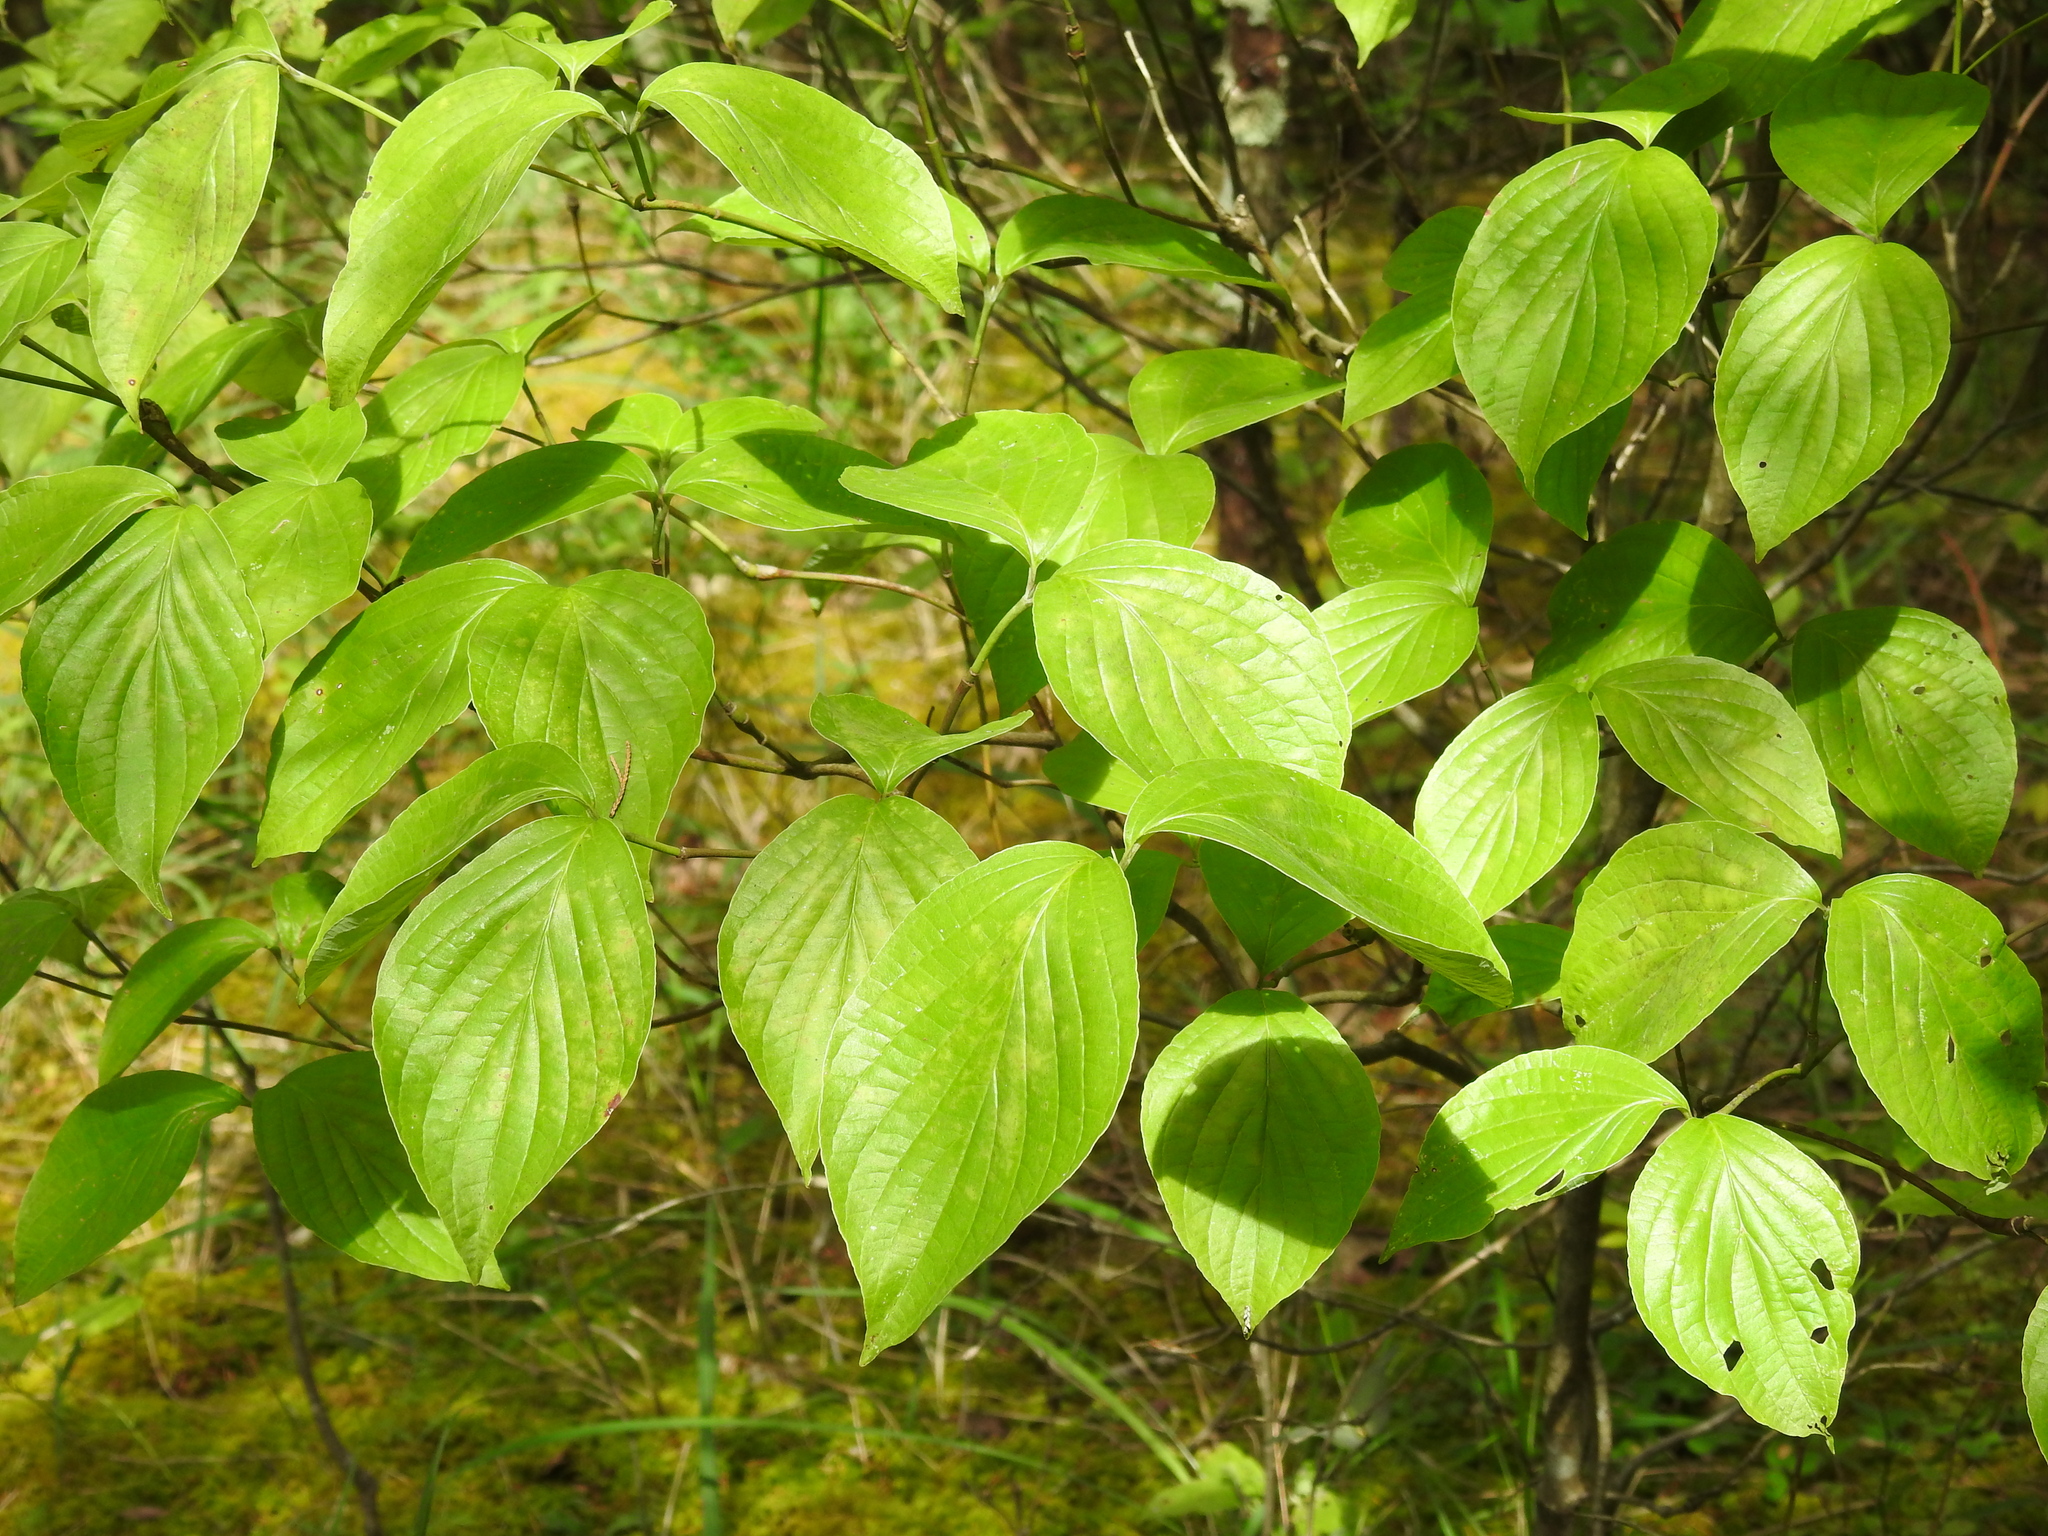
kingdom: Plantae
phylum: Tracheophyta
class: Magnoliopsida
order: Cornales
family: Cornaceae
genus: Cornus
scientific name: Cornus florida
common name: Flowering dogwood
